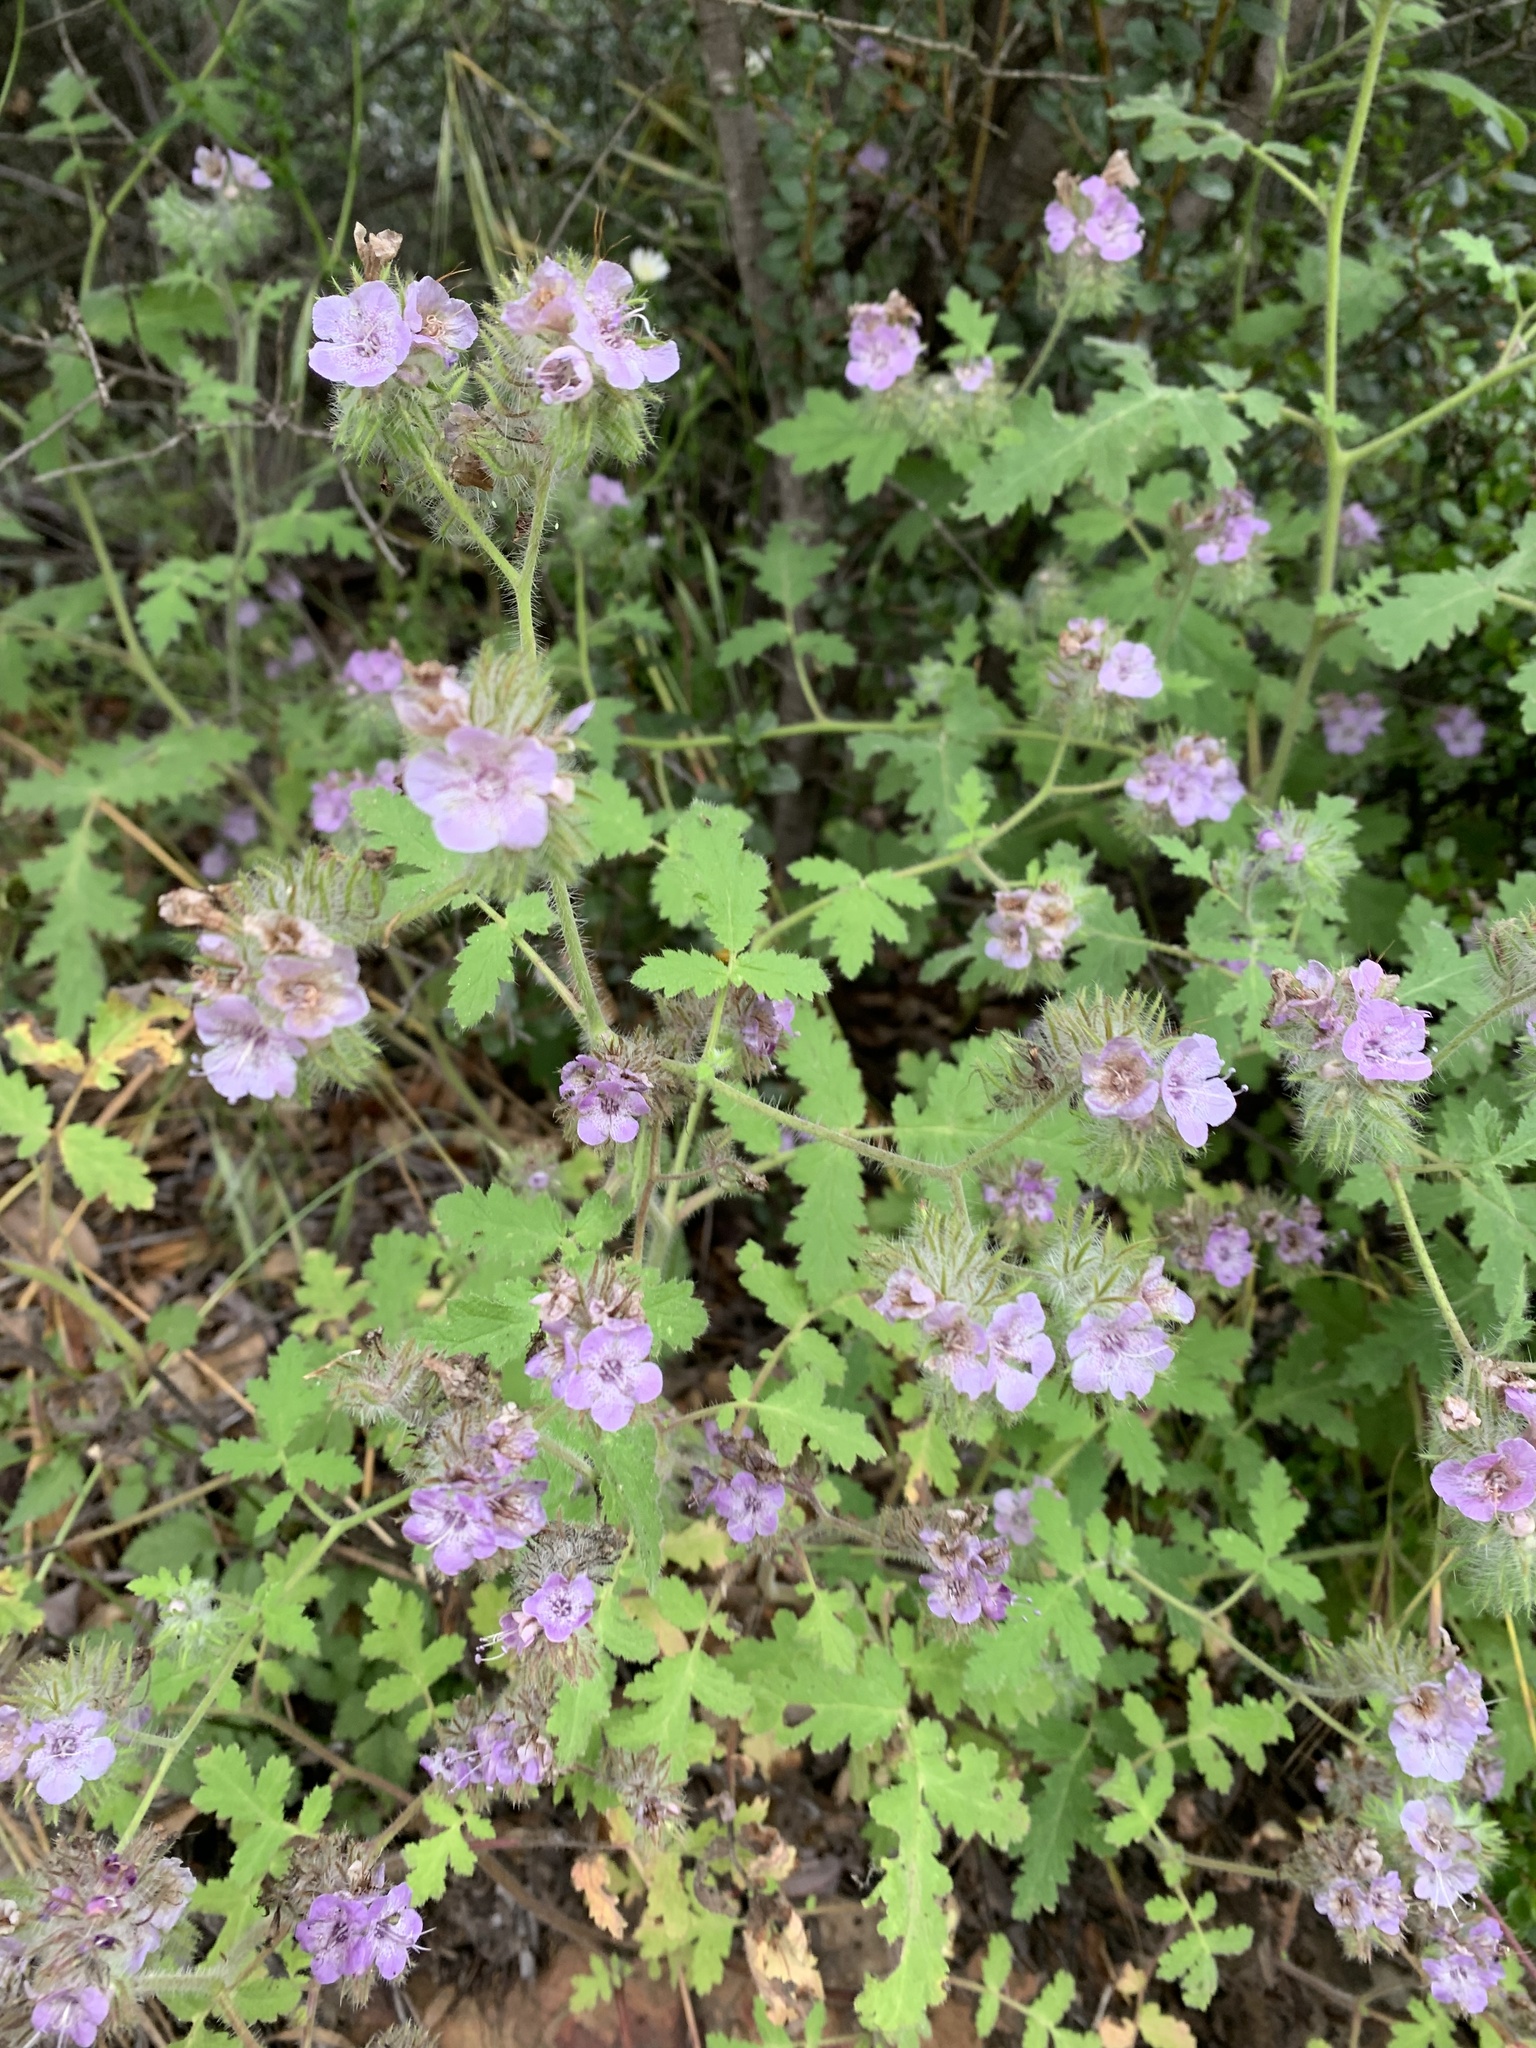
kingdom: Plantae
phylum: Tracheophyta
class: Magnoliopsida
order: Boraginales
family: Hydrophyllaceae
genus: Phacelia
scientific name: Phacelia cicutaria
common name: Caterpillar phacelia
